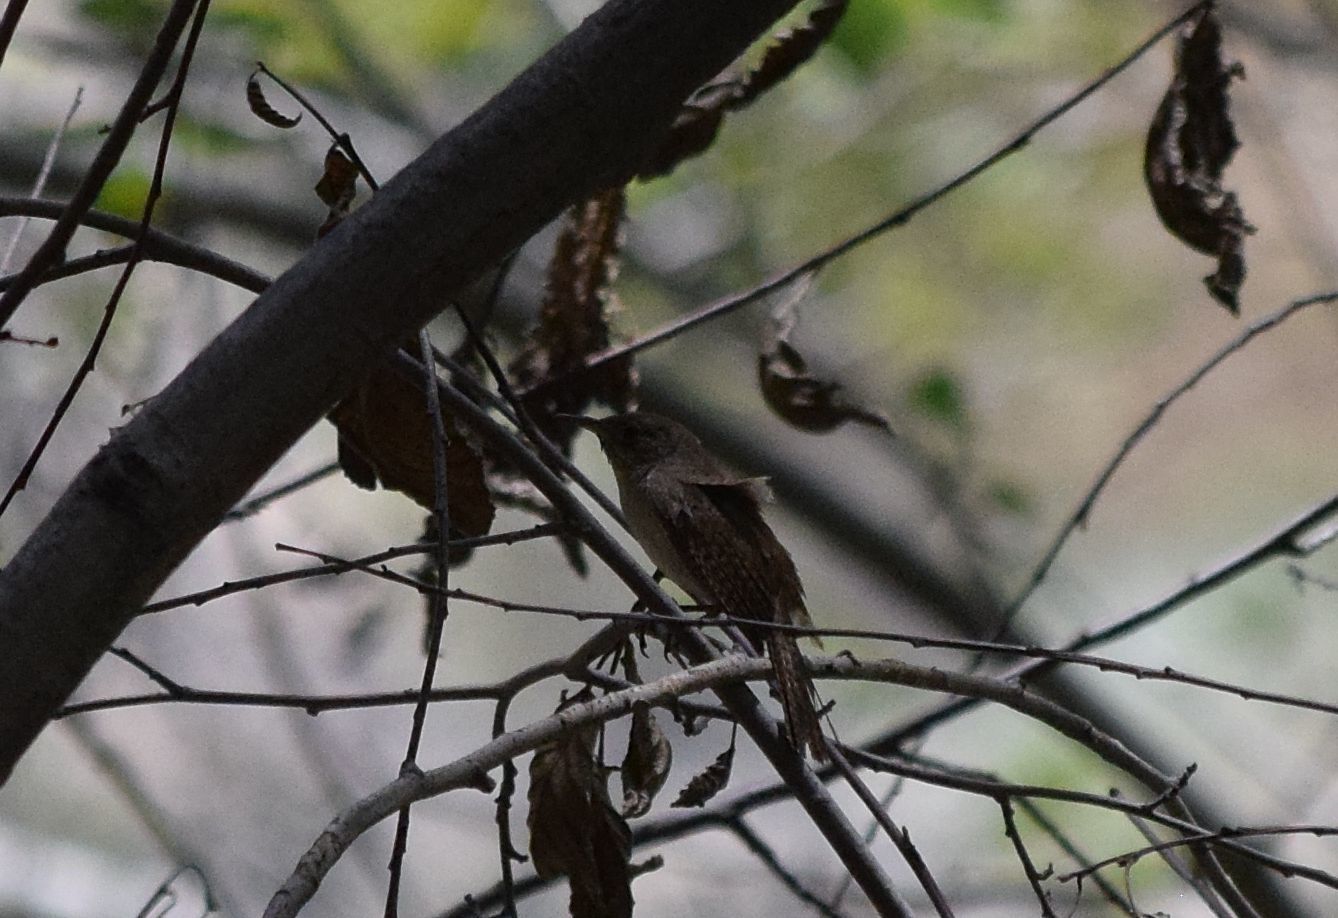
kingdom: Animalia
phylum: Chordata
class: Aves
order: Passeriformes
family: Troglodytidae
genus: Troglodytes
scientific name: Troglodytes aedon
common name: House wren
